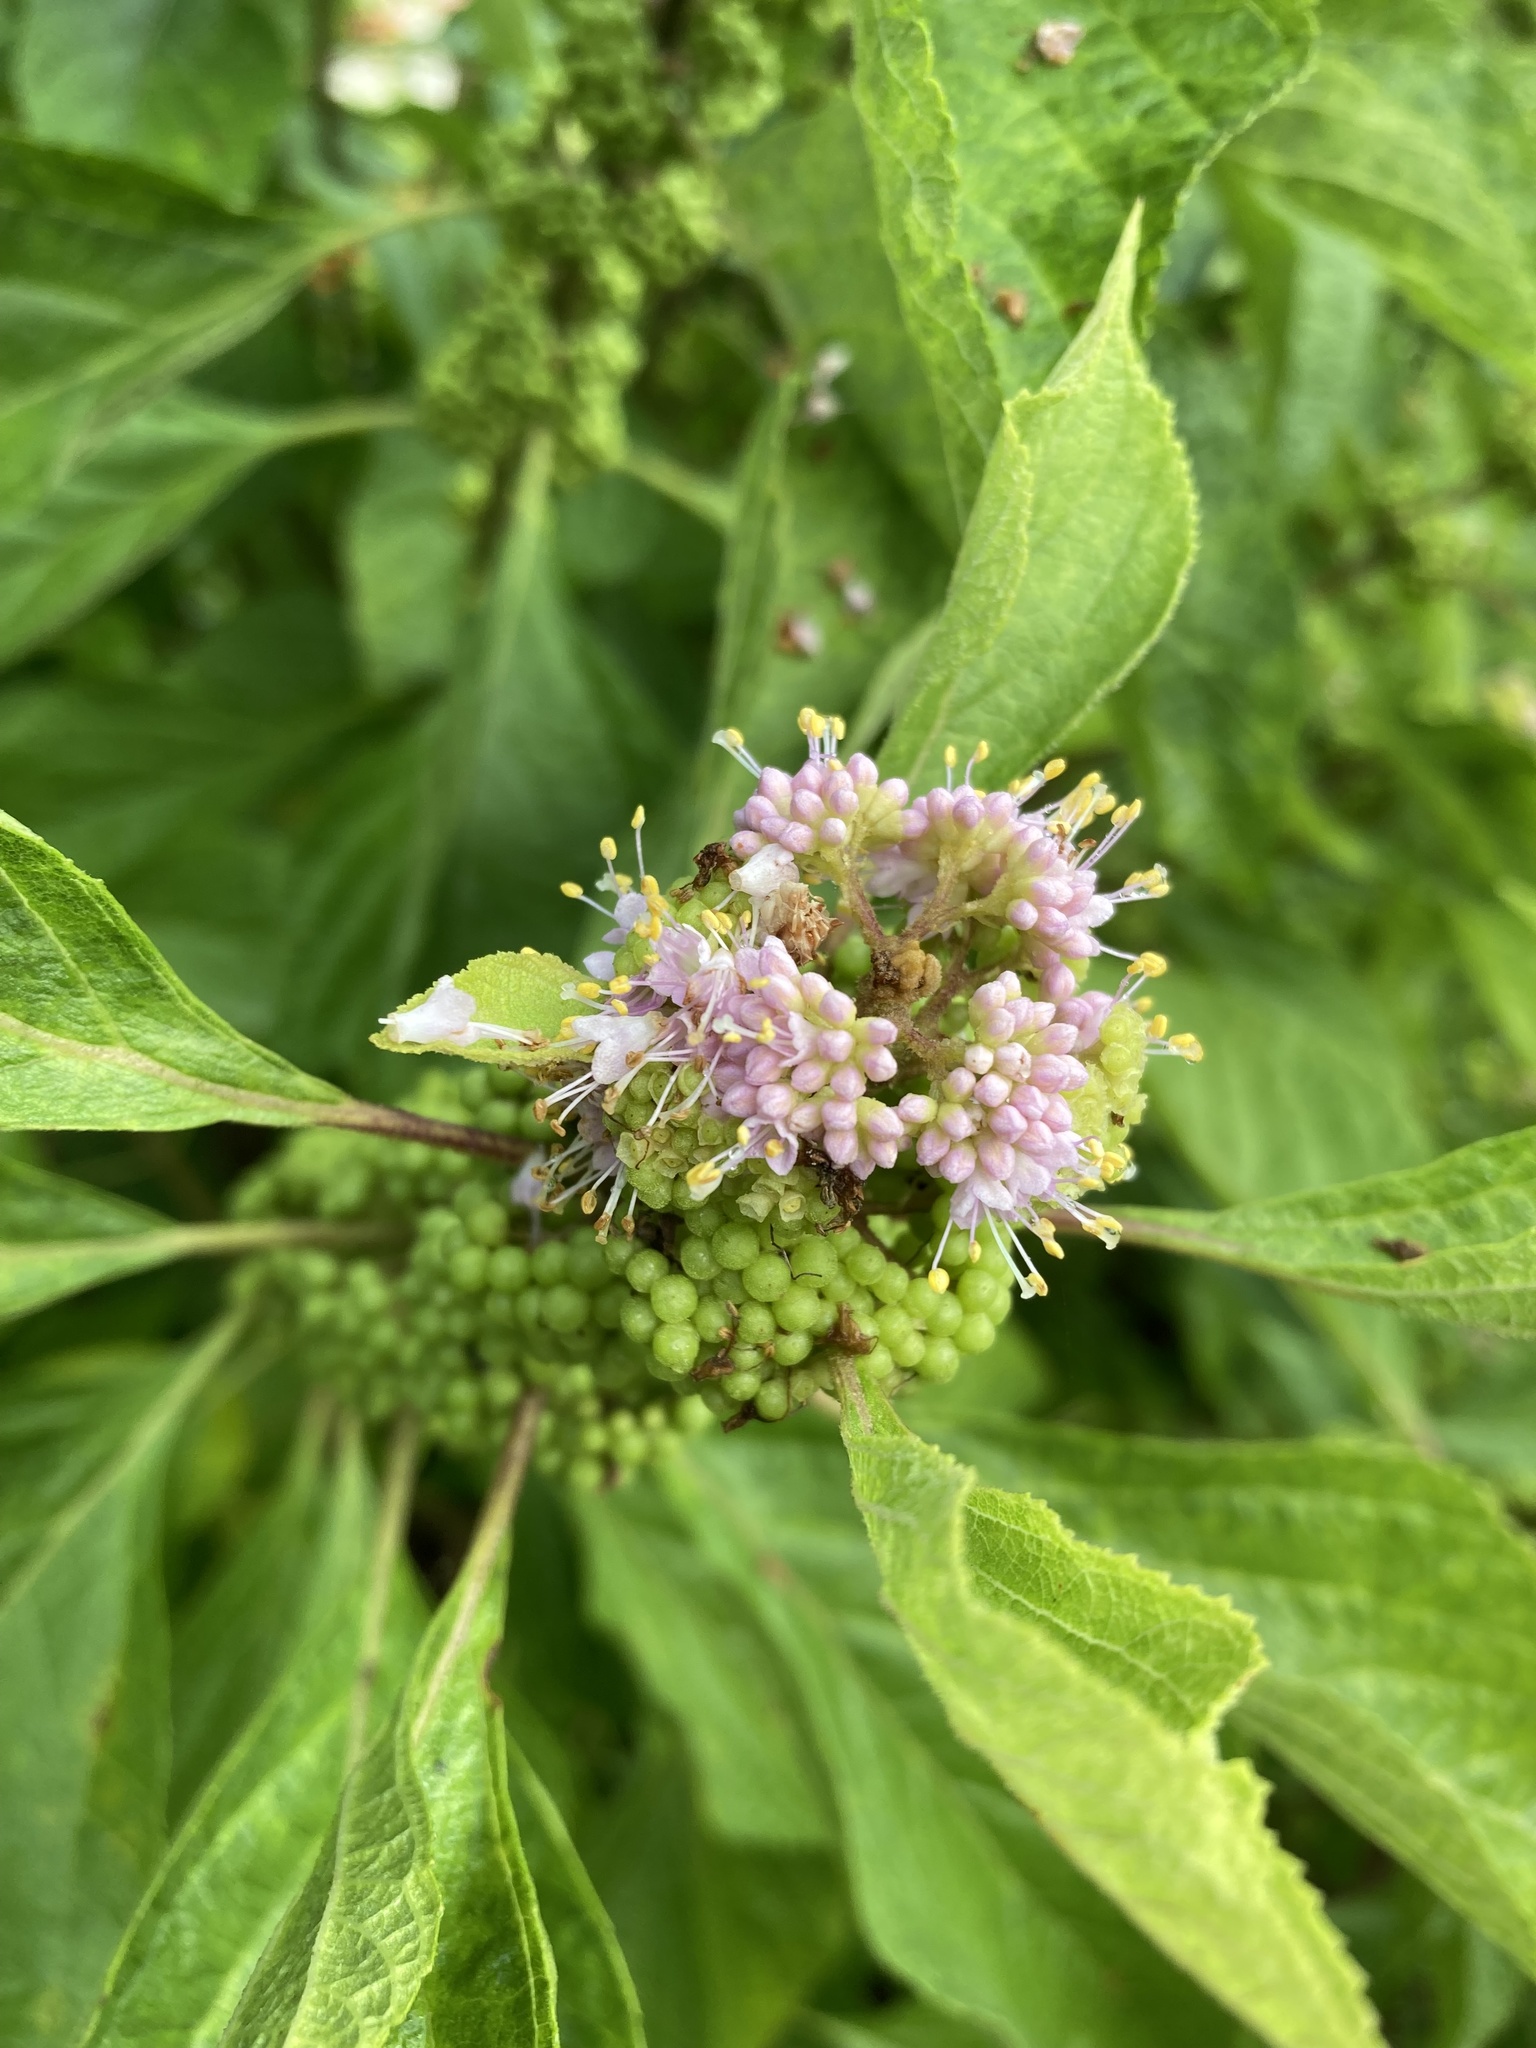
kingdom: Plantae
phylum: Tracheophyta
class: Magnoliopsida
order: Lamiales
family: Lamiaceae
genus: Callicarpa
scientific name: Callicarpa americana
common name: American beautyberry
